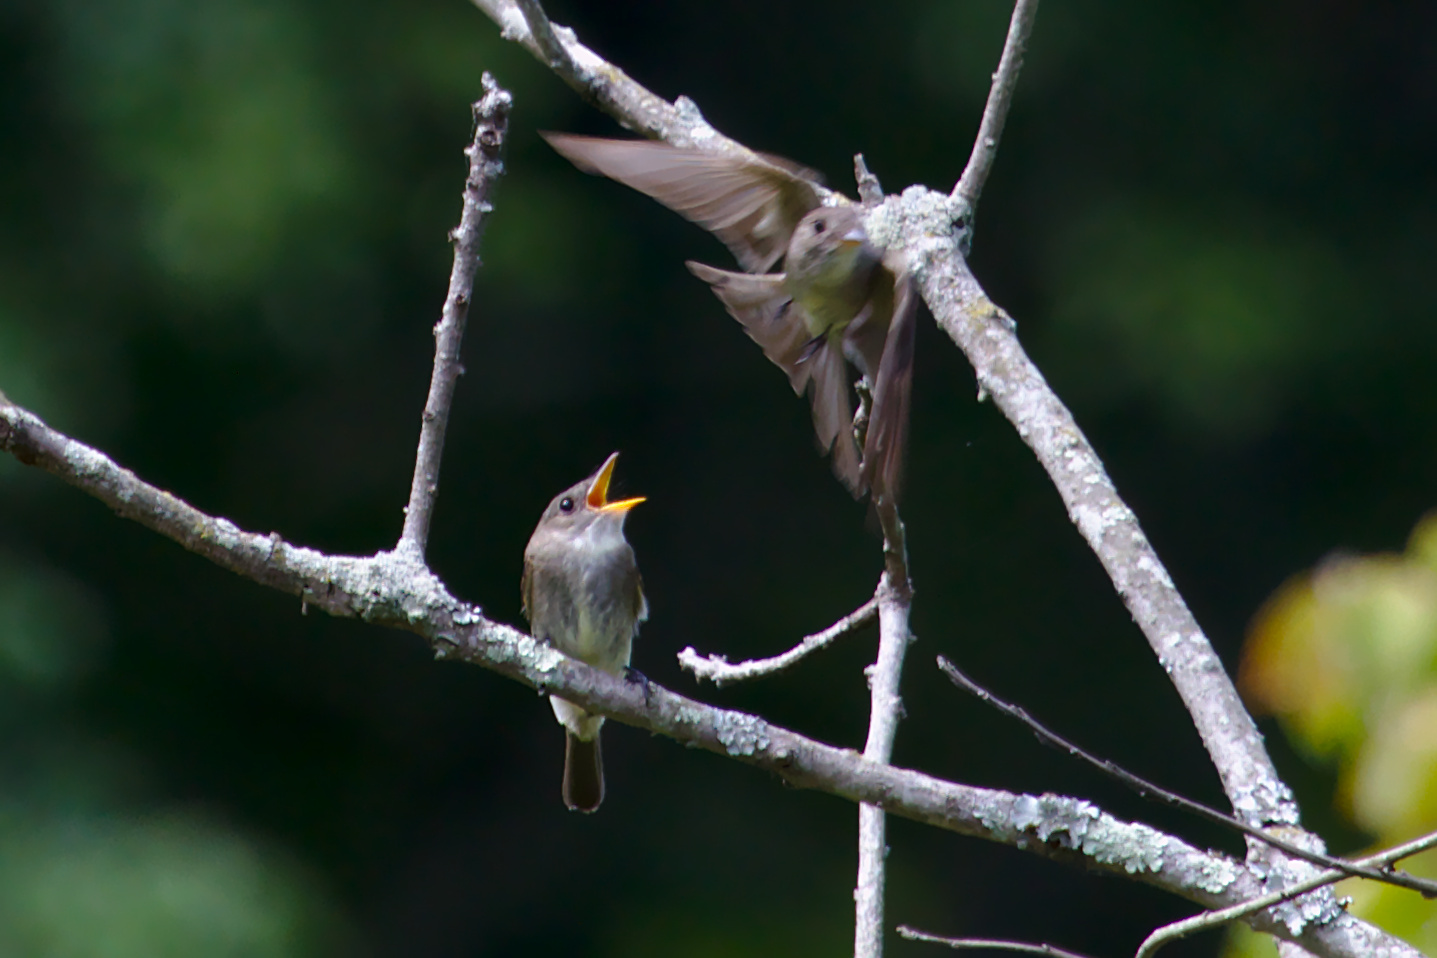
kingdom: Animalia
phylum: Chordata
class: Aves
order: Passeriformes
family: Tyrannidae
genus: Contopus
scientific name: Contopus virens
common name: Eastern wood-pewee
